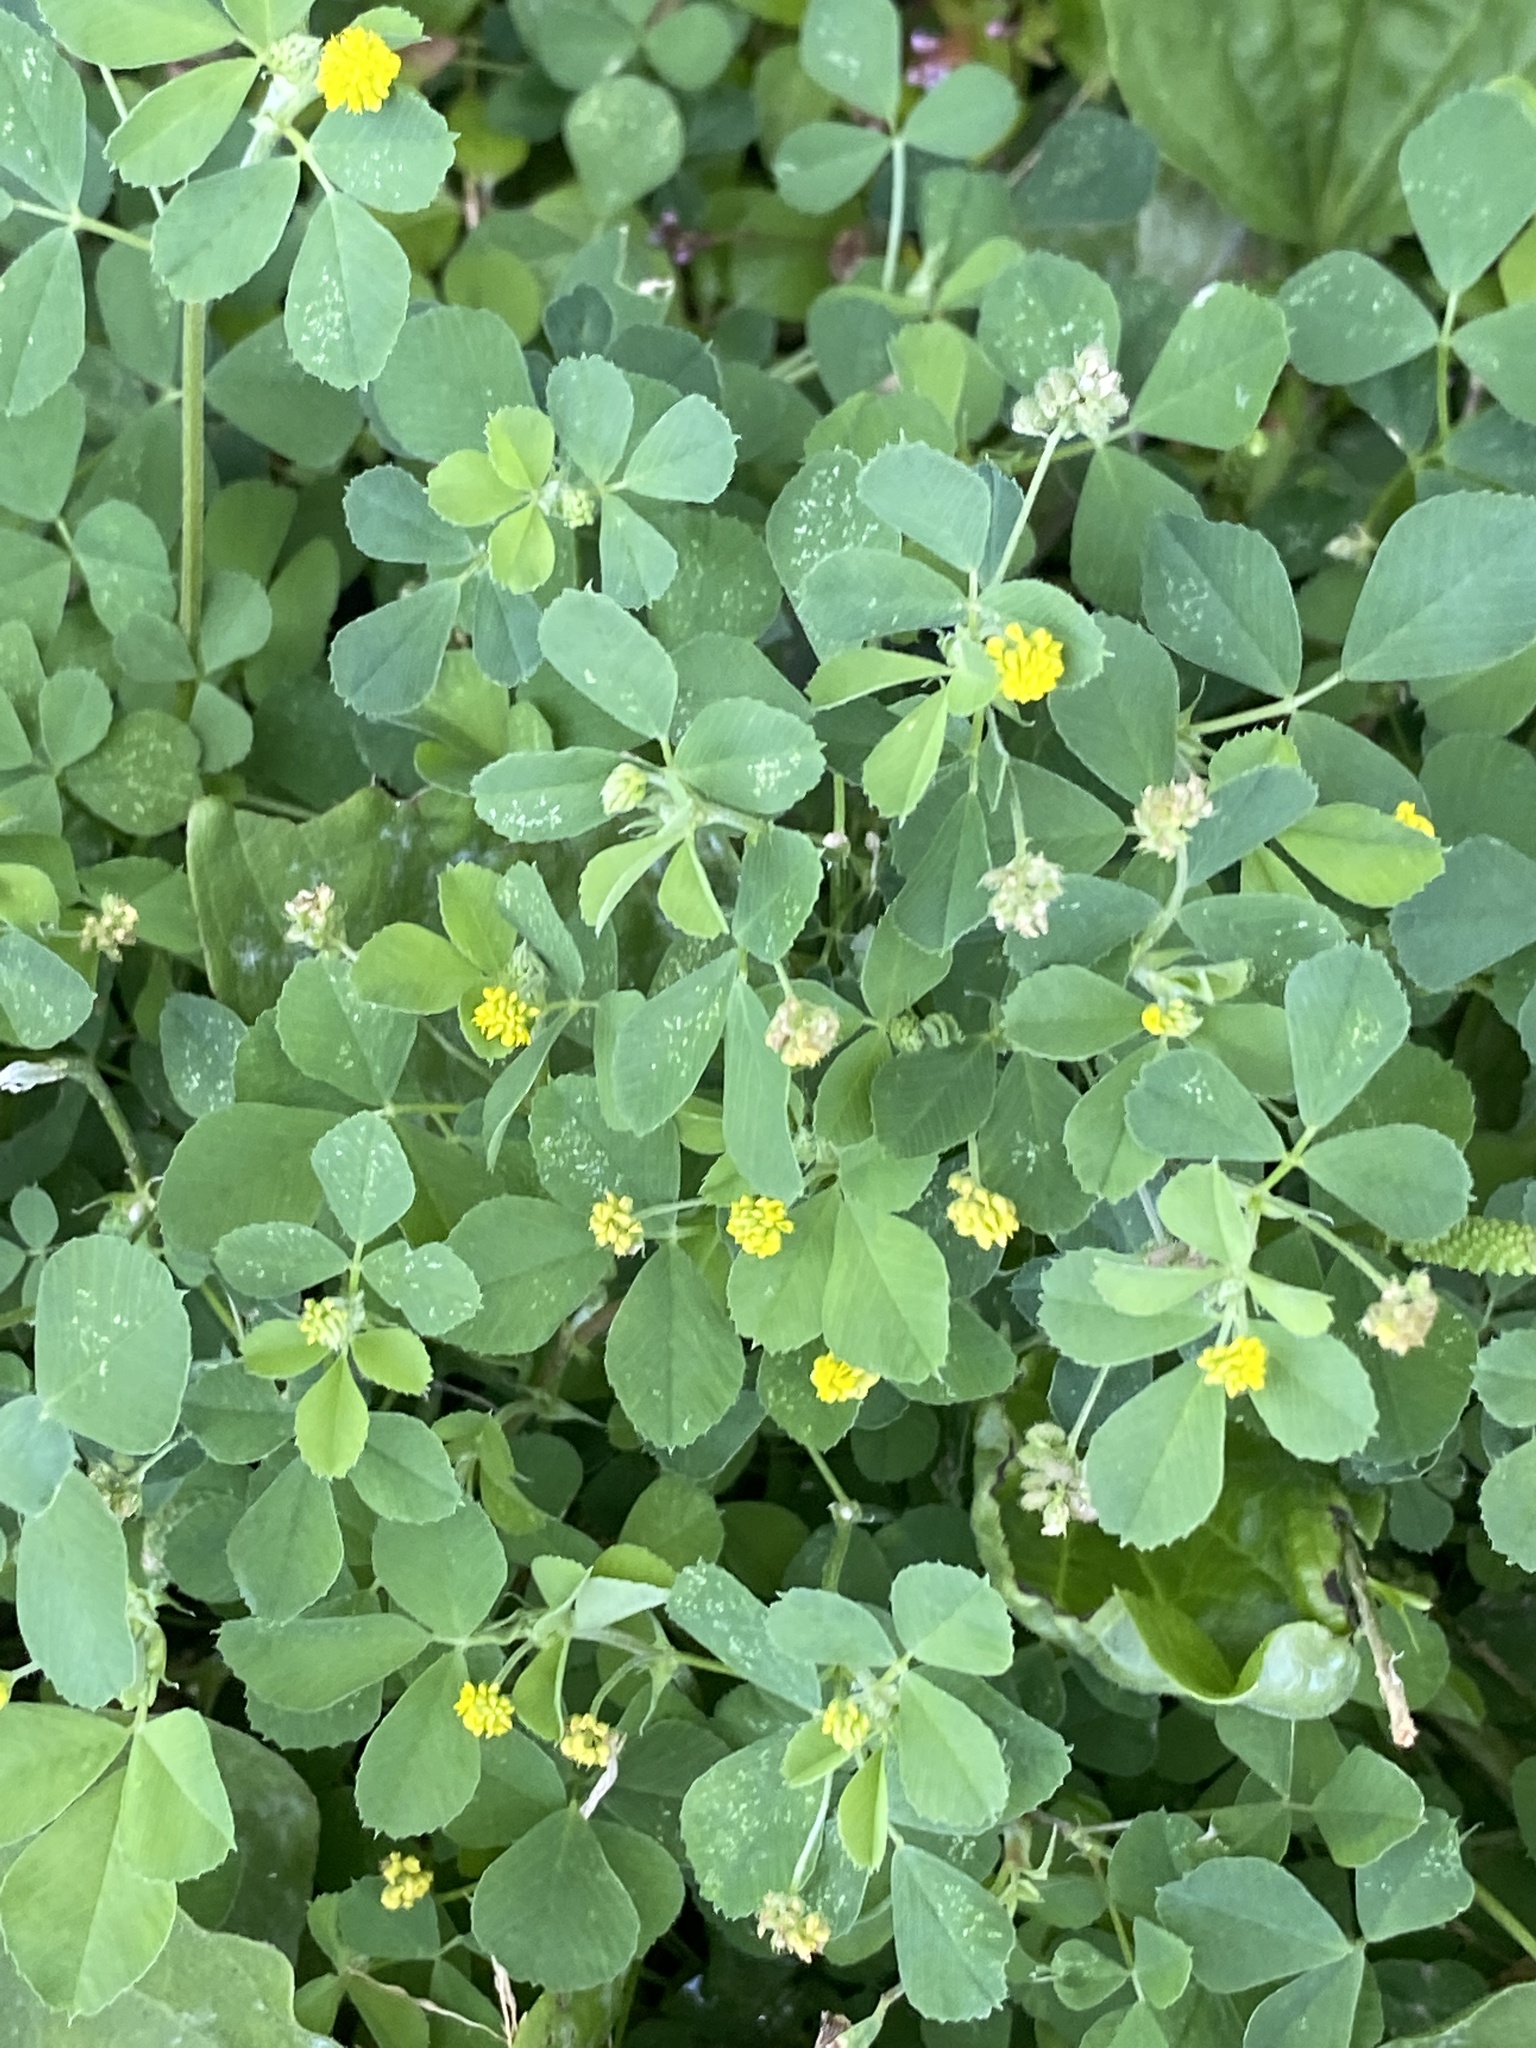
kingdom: Plantae
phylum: Tracheophyta
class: Magnoliopsida
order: Fabales
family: Fabaceae
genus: Medicago
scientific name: Medicago lupulina
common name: Black medick
